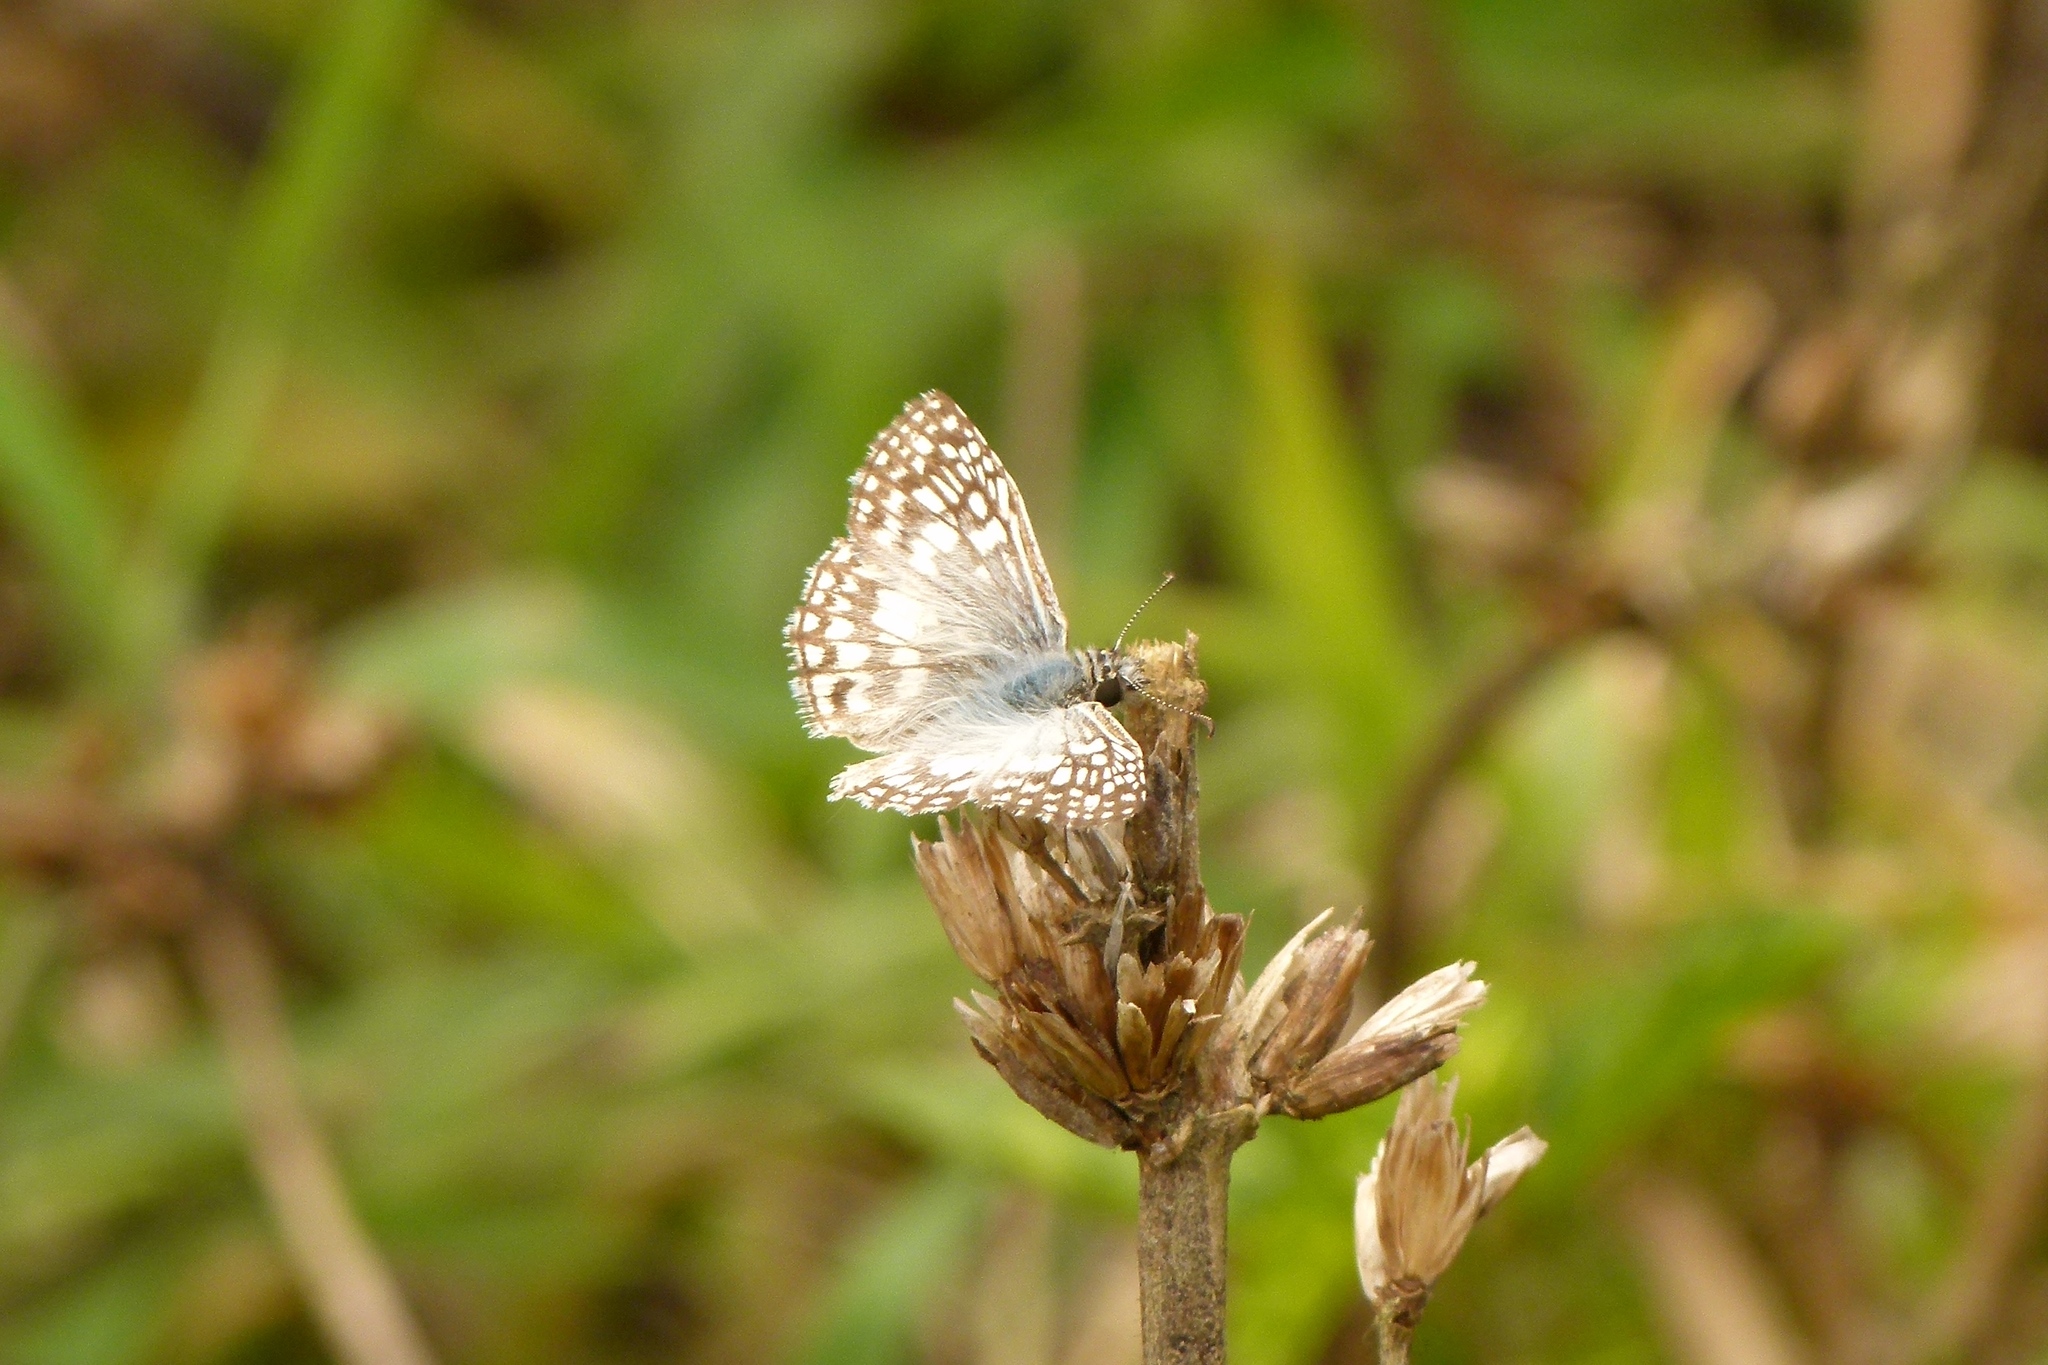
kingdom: Animalia
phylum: Arthropoda
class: Insecta
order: Lepidoptera
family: Hesperiidae
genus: Pyrgus
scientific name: Pyrgus oileus
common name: Tropical checkered-skipper
